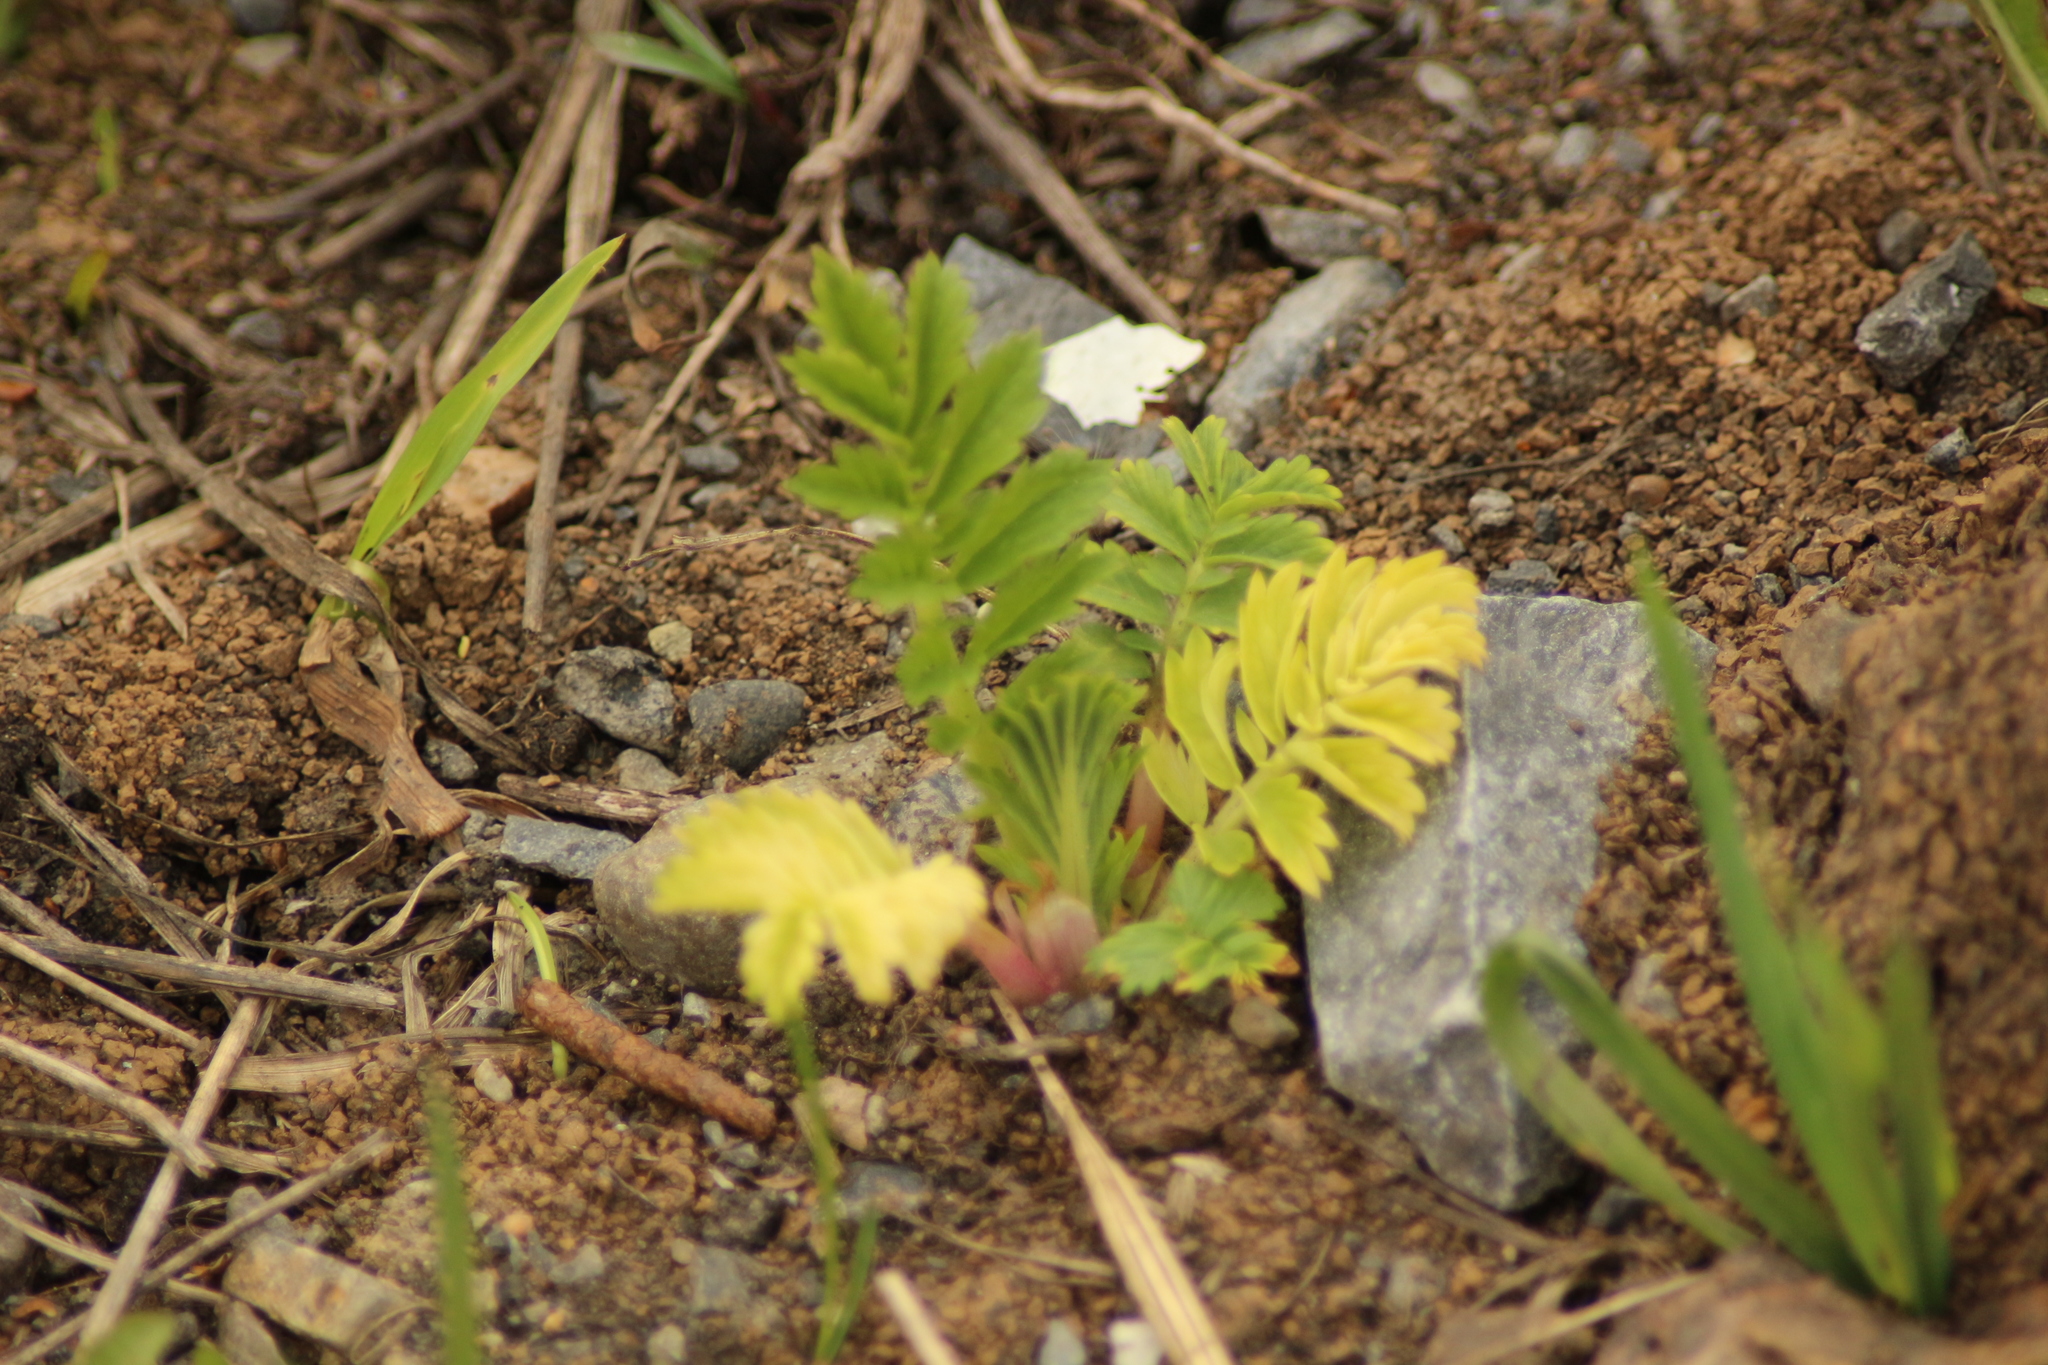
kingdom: Plantae
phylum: Tracheophyta
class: Magnoliopsida
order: Rosales
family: Rosaceae
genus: Agrimonia
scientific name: Agrimonia pilosa
